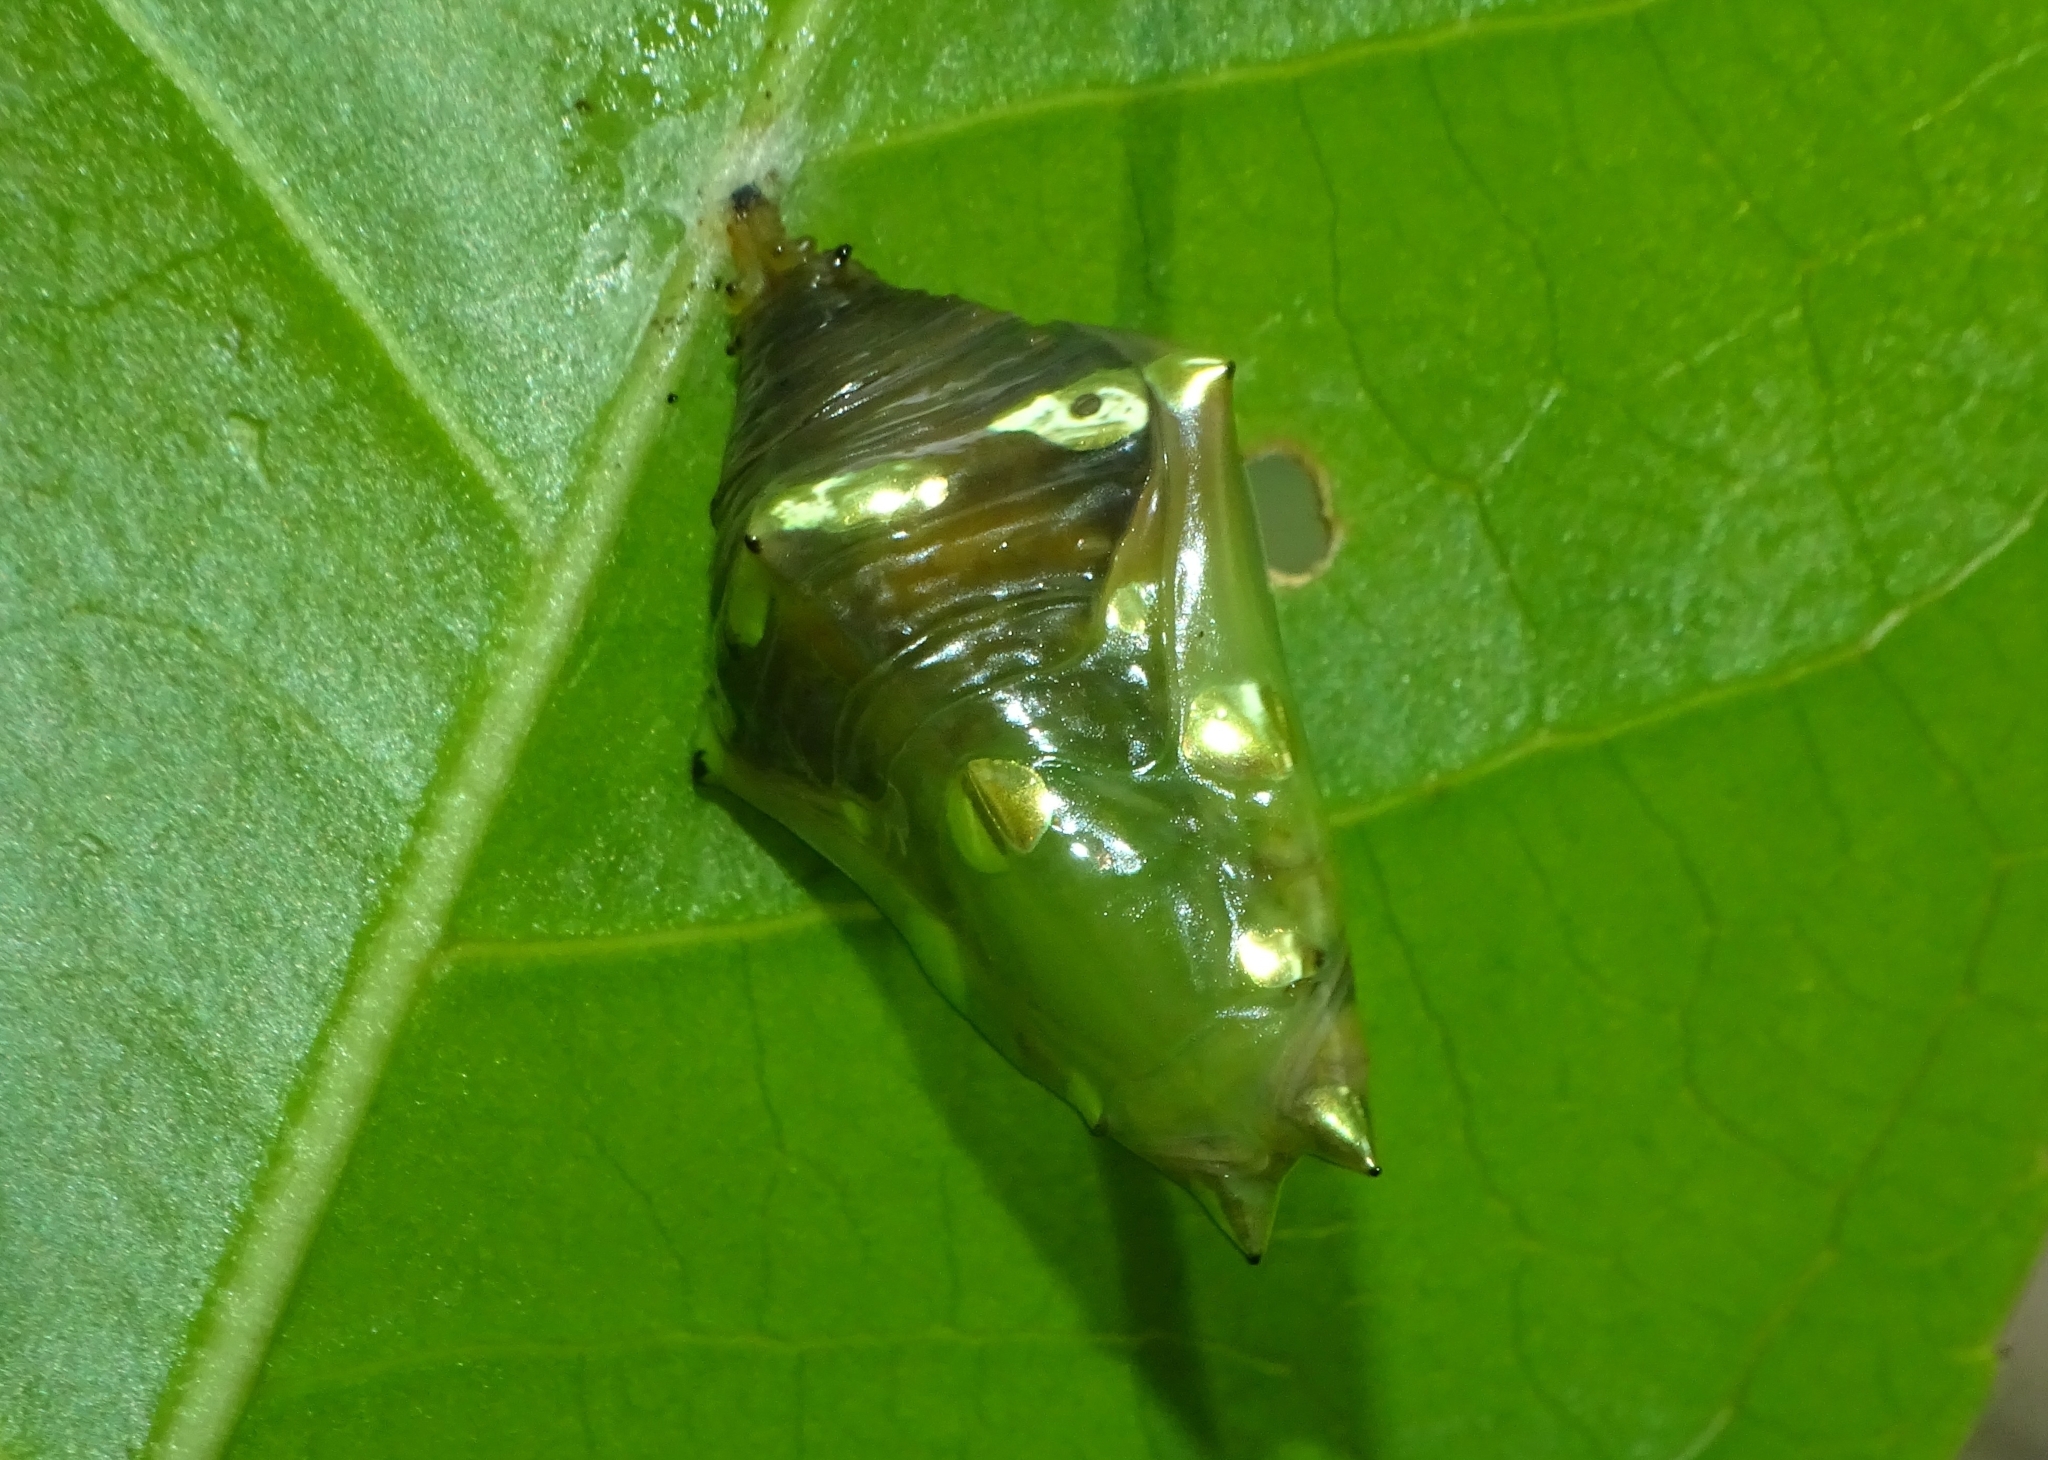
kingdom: Animalia
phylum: Arthropoda
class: Insecta
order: Lepidoptera
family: Nymphalidae
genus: Tanaecia
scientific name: Tanaecia lepidea
